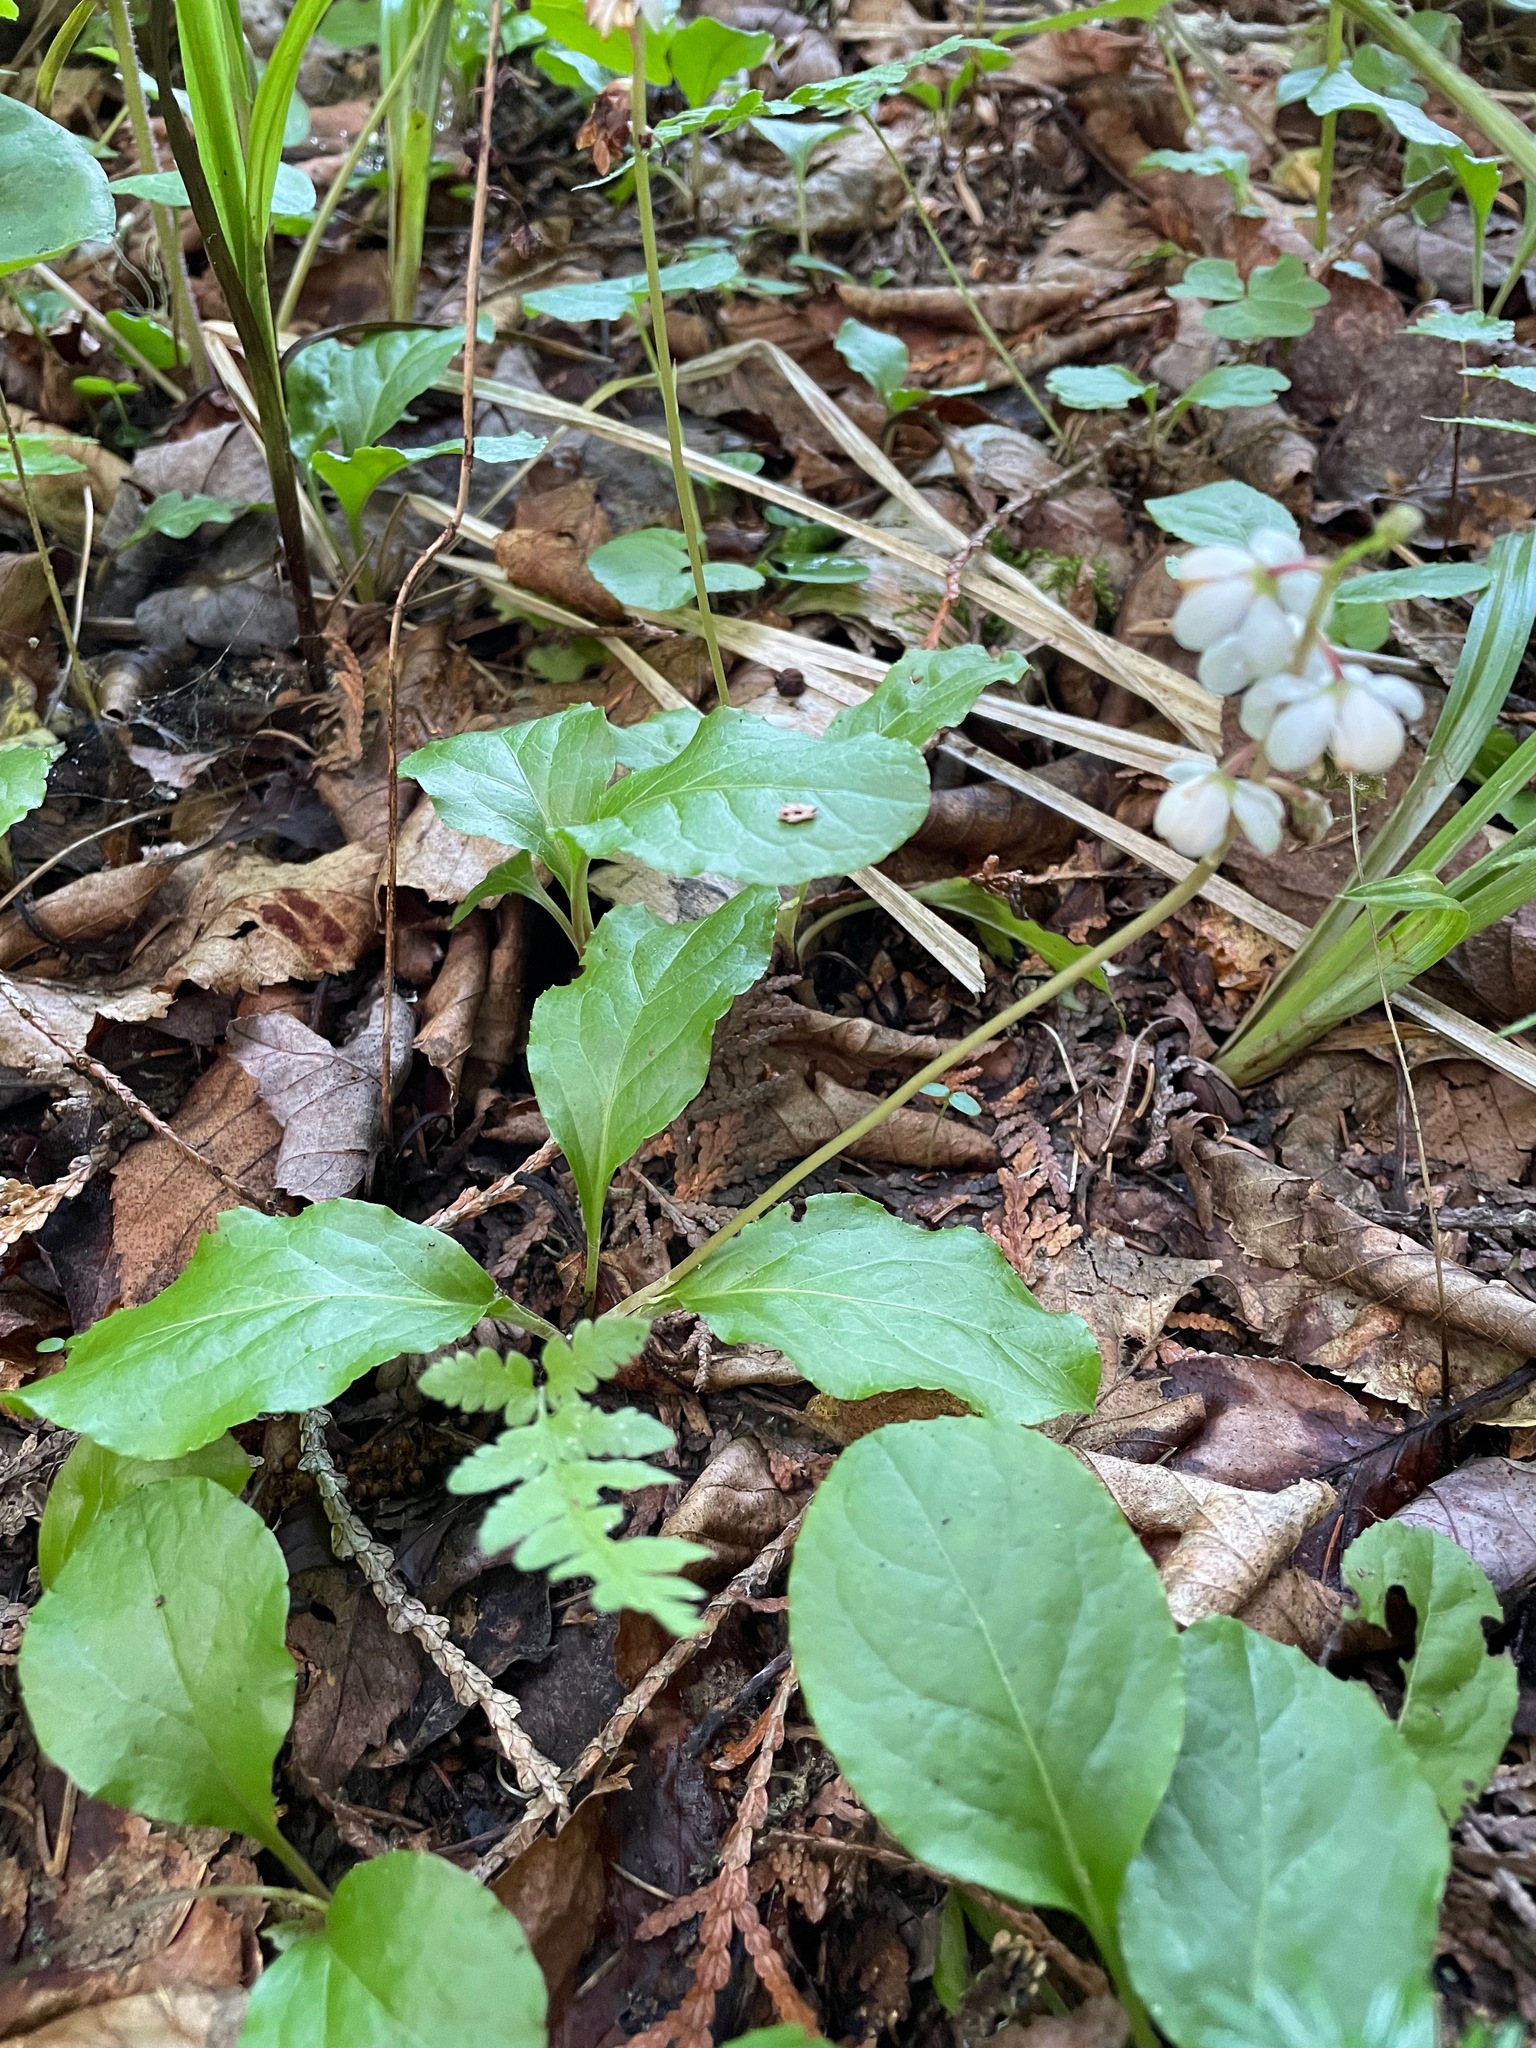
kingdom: Plantae
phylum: Tracheophyta
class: Magnoliopsida
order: Ericales
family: Ericaceae
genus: Pyrola
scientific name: Pyrola elliptica
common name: Shinleaf
